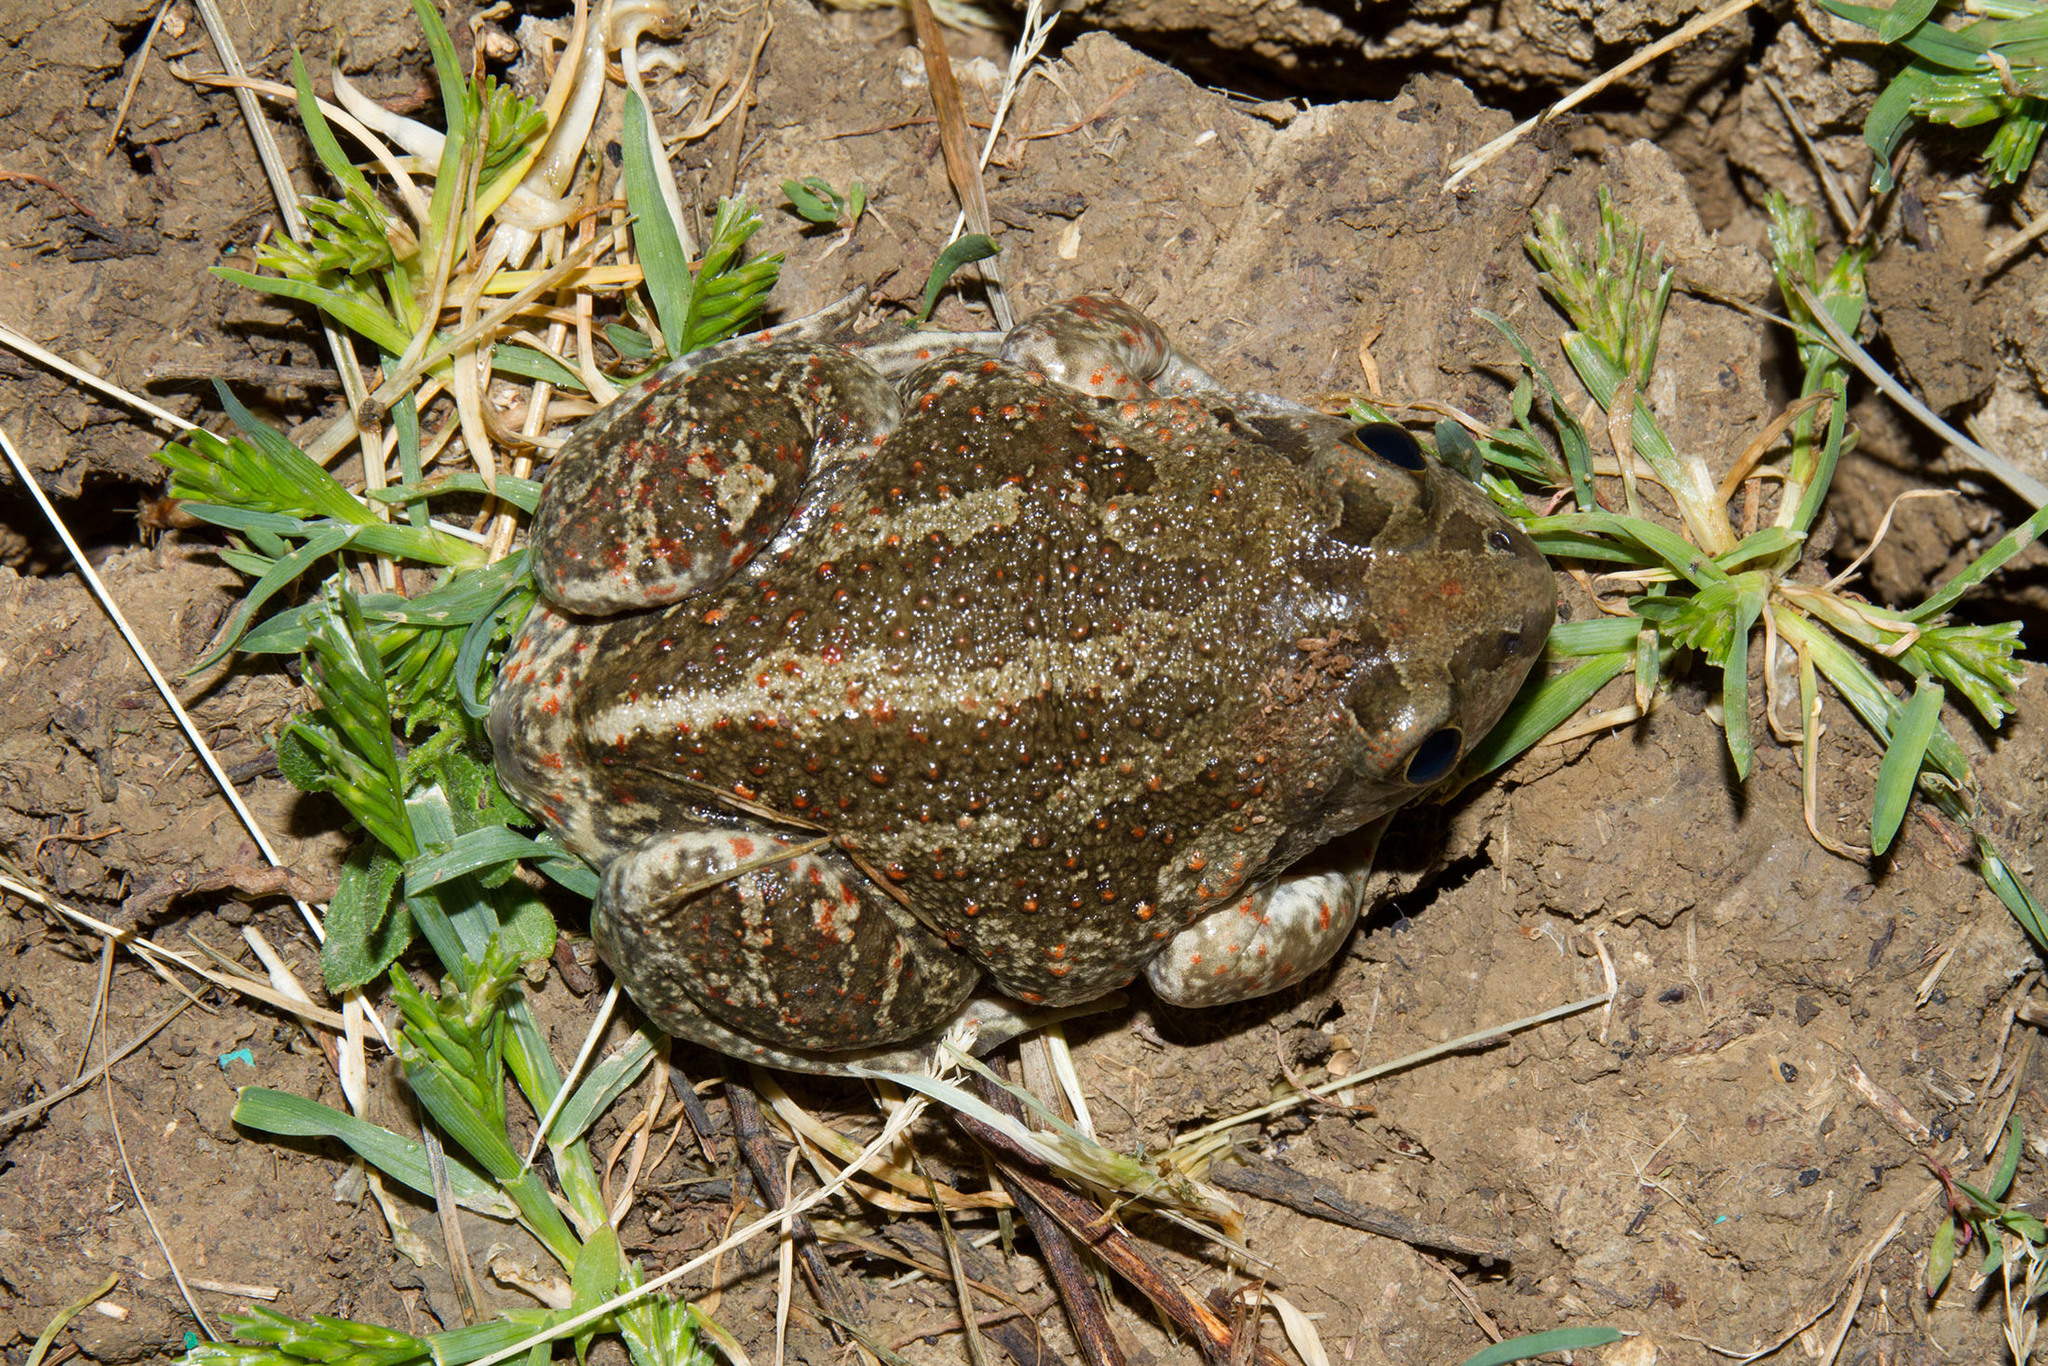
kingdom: Animalia
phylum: Chordata
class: Amphibia
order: Anura
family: Pelobatidae
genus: Pelobates
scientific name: Pelobates vespertinus
